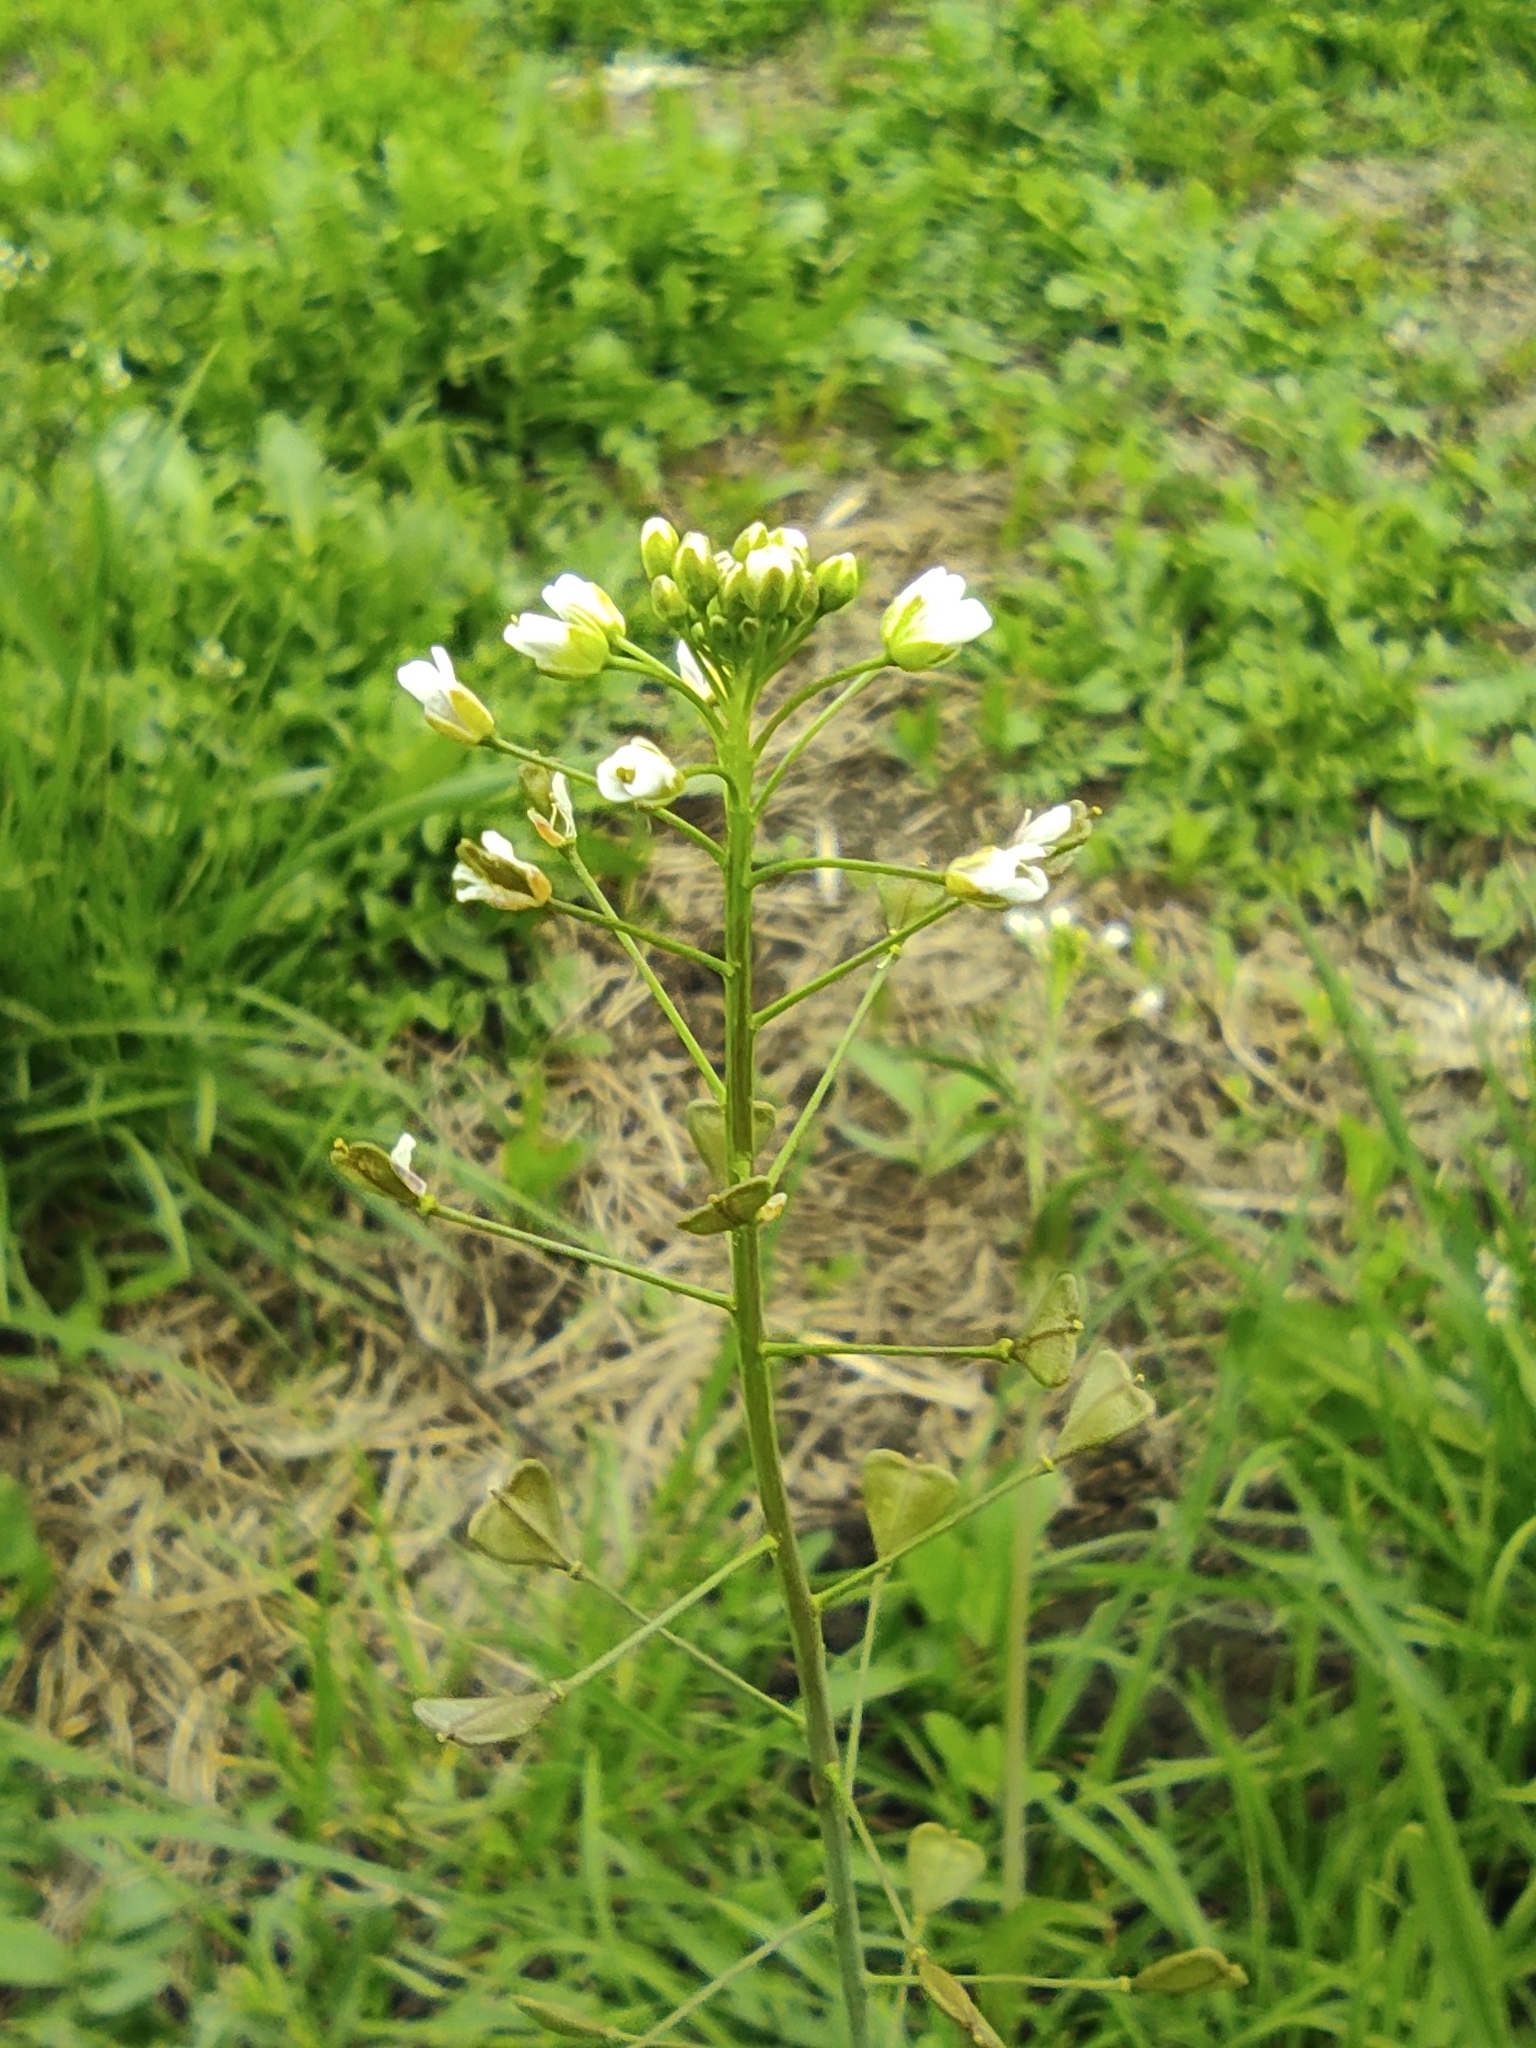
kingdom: Plantae
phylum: Tracheophyta
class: Magnoliopsida
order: Brassicales
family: Brassicaceae
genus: Capsella
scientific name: Capsella bursa-pastoris
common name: Shepherd's purse
